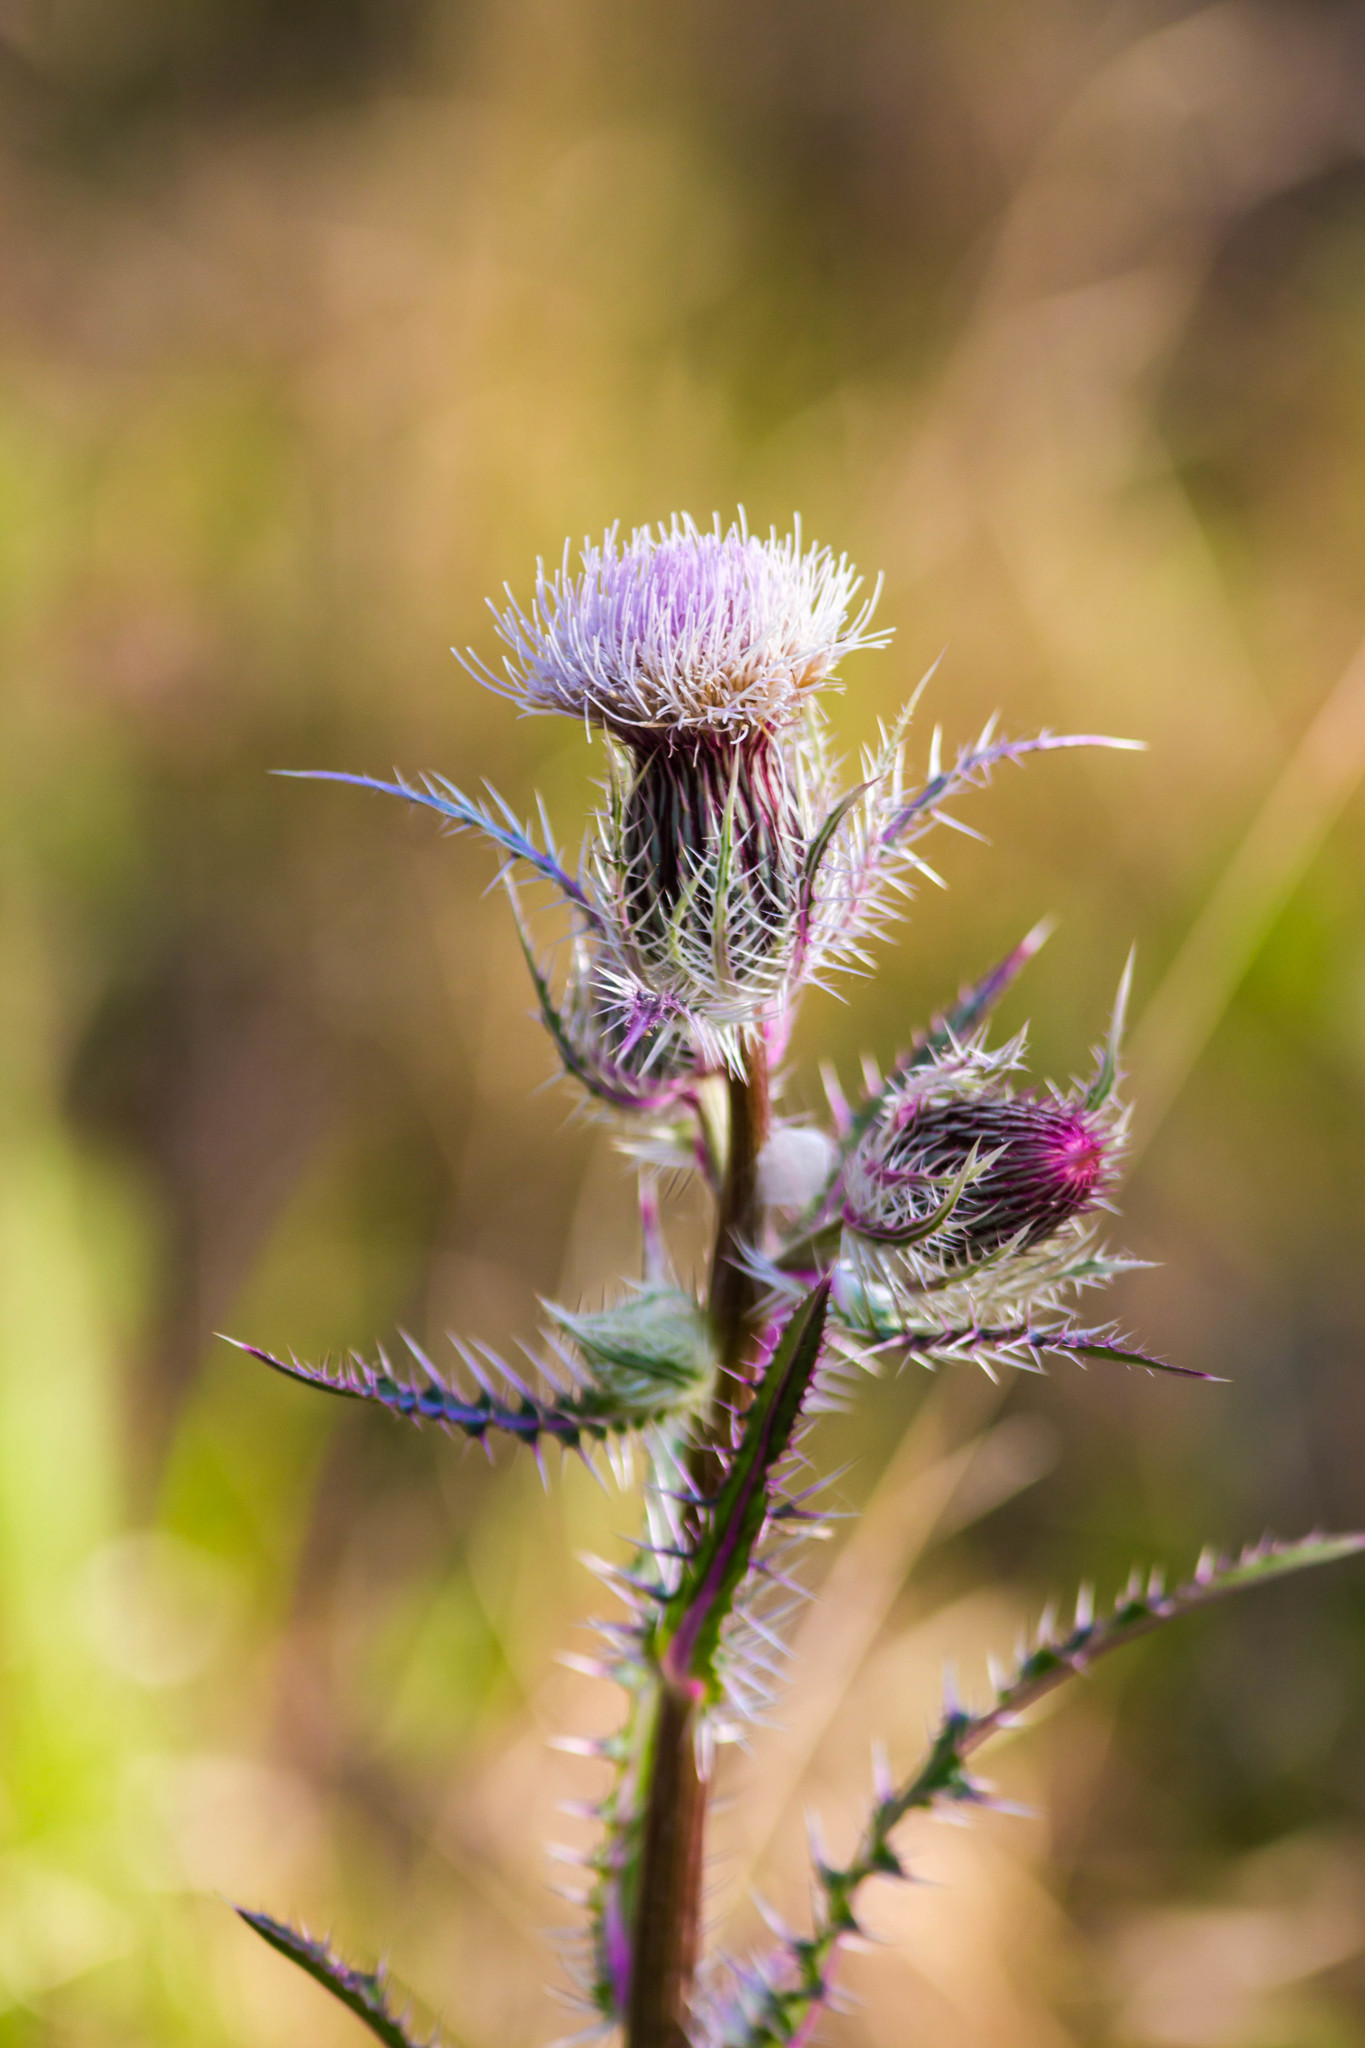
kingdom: Plantae
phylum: Tracheophyta
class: Magnoliopsida
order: Asterales
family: Asteraceae
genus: Cirsium
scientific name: Cirsium horridulum
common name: Bristly thistle
